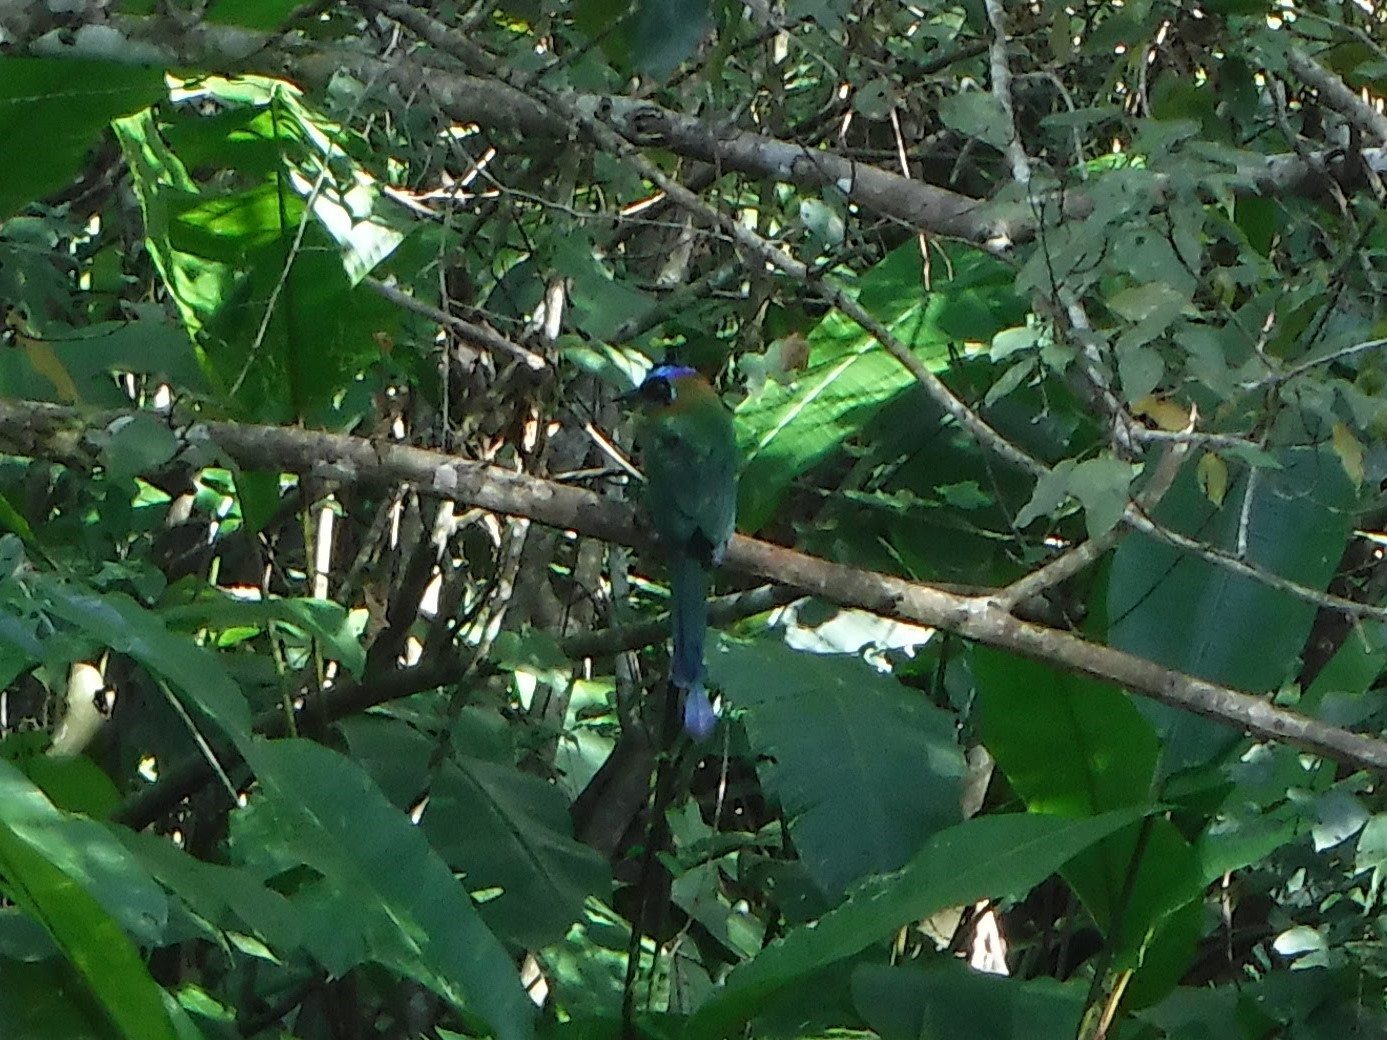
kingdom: Animalia
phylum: Chordata
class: Aves
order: Coraciiformes
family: Momotidae
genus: Momotus
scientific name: Momotus momota
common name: Amazonian motmot
